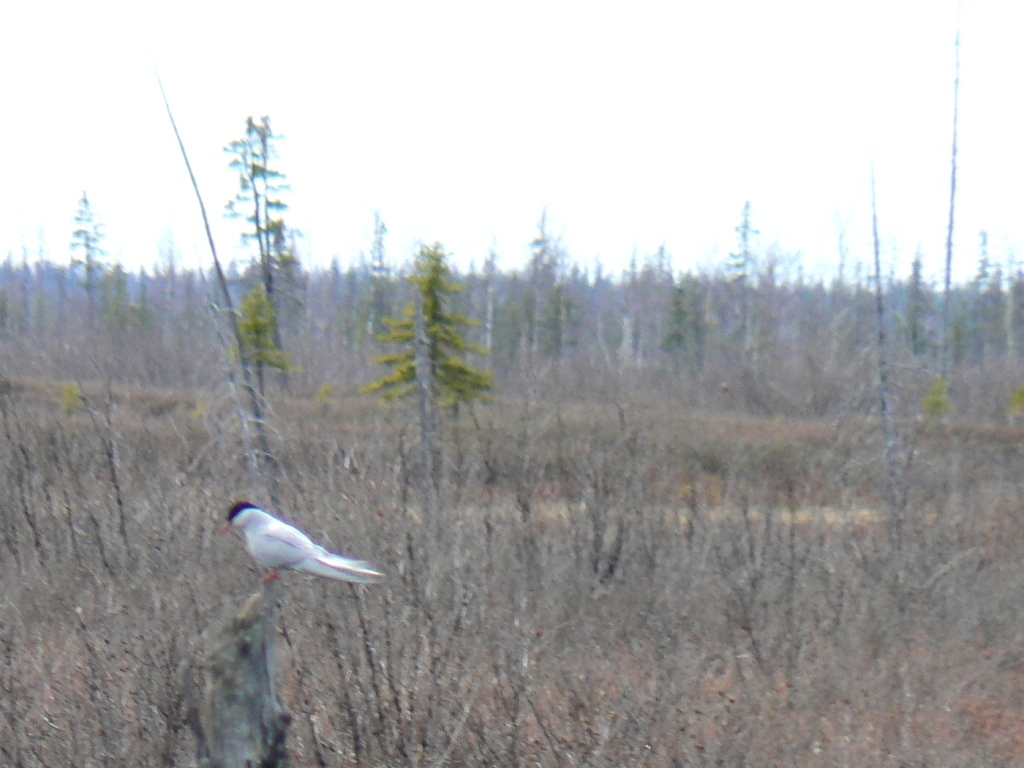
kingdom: Animalia
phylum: Chordata
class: Aves
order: Charadriiformes
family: Laridae
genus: Sterna
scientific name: Sterna paradisaea
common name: Arctic tern
